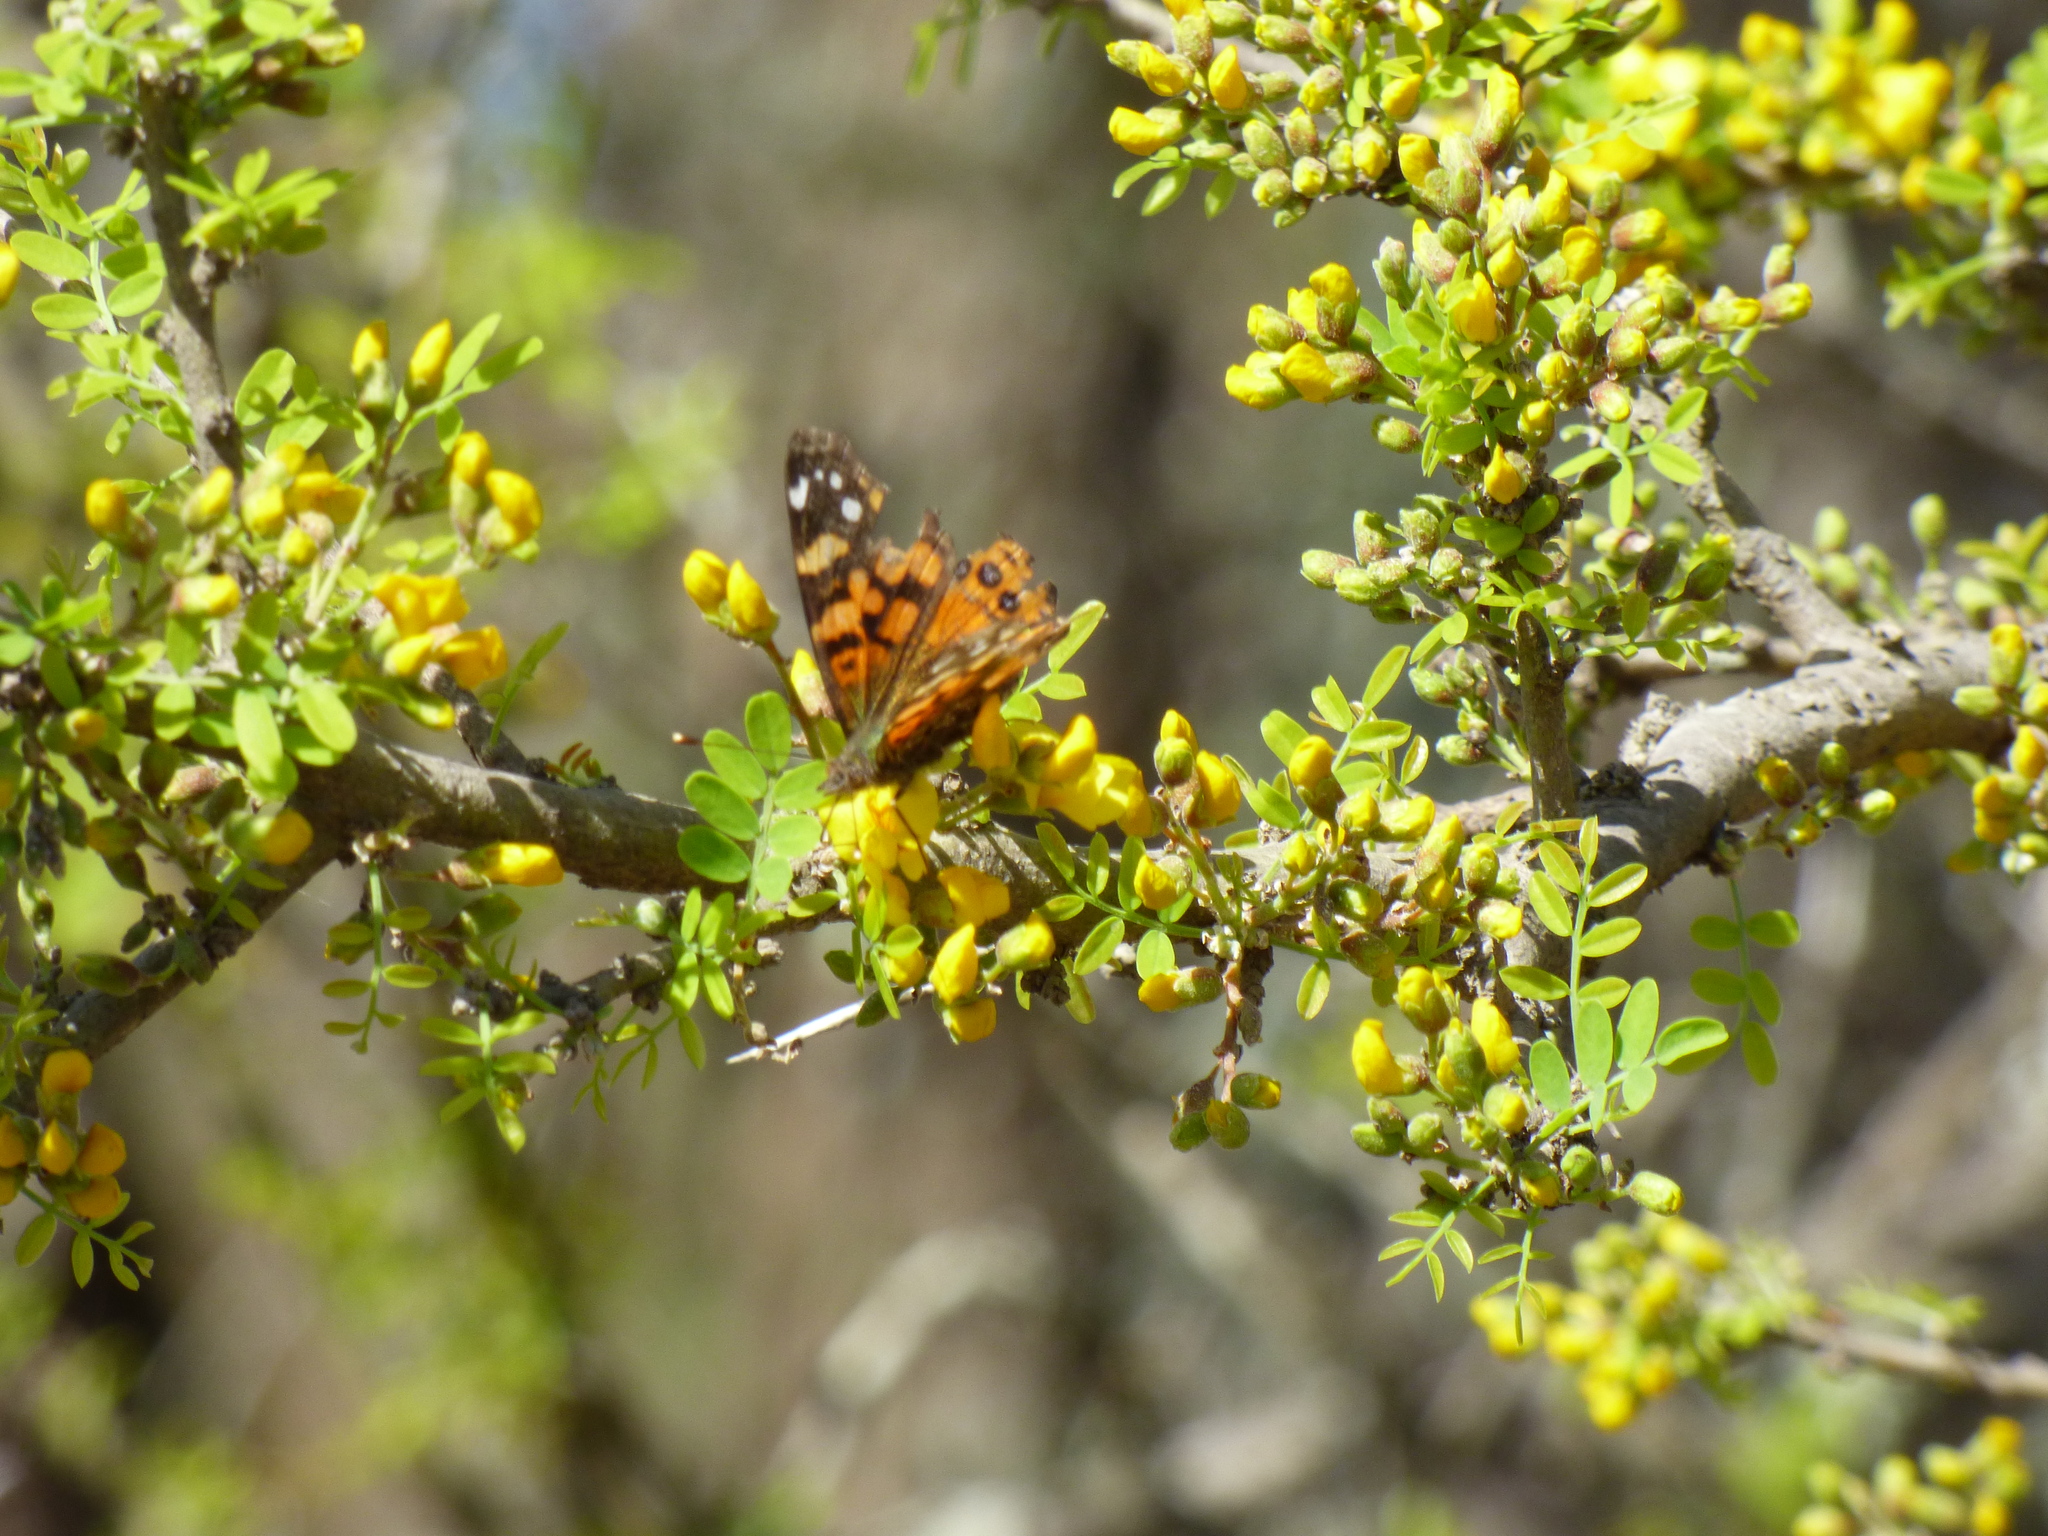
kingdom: Animalia
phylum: Arthropoda
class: Insecta
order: Lepidoptera
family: Nymphalidae
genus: Vanessa
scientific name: Vanessa carye
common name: Subtropical lady
